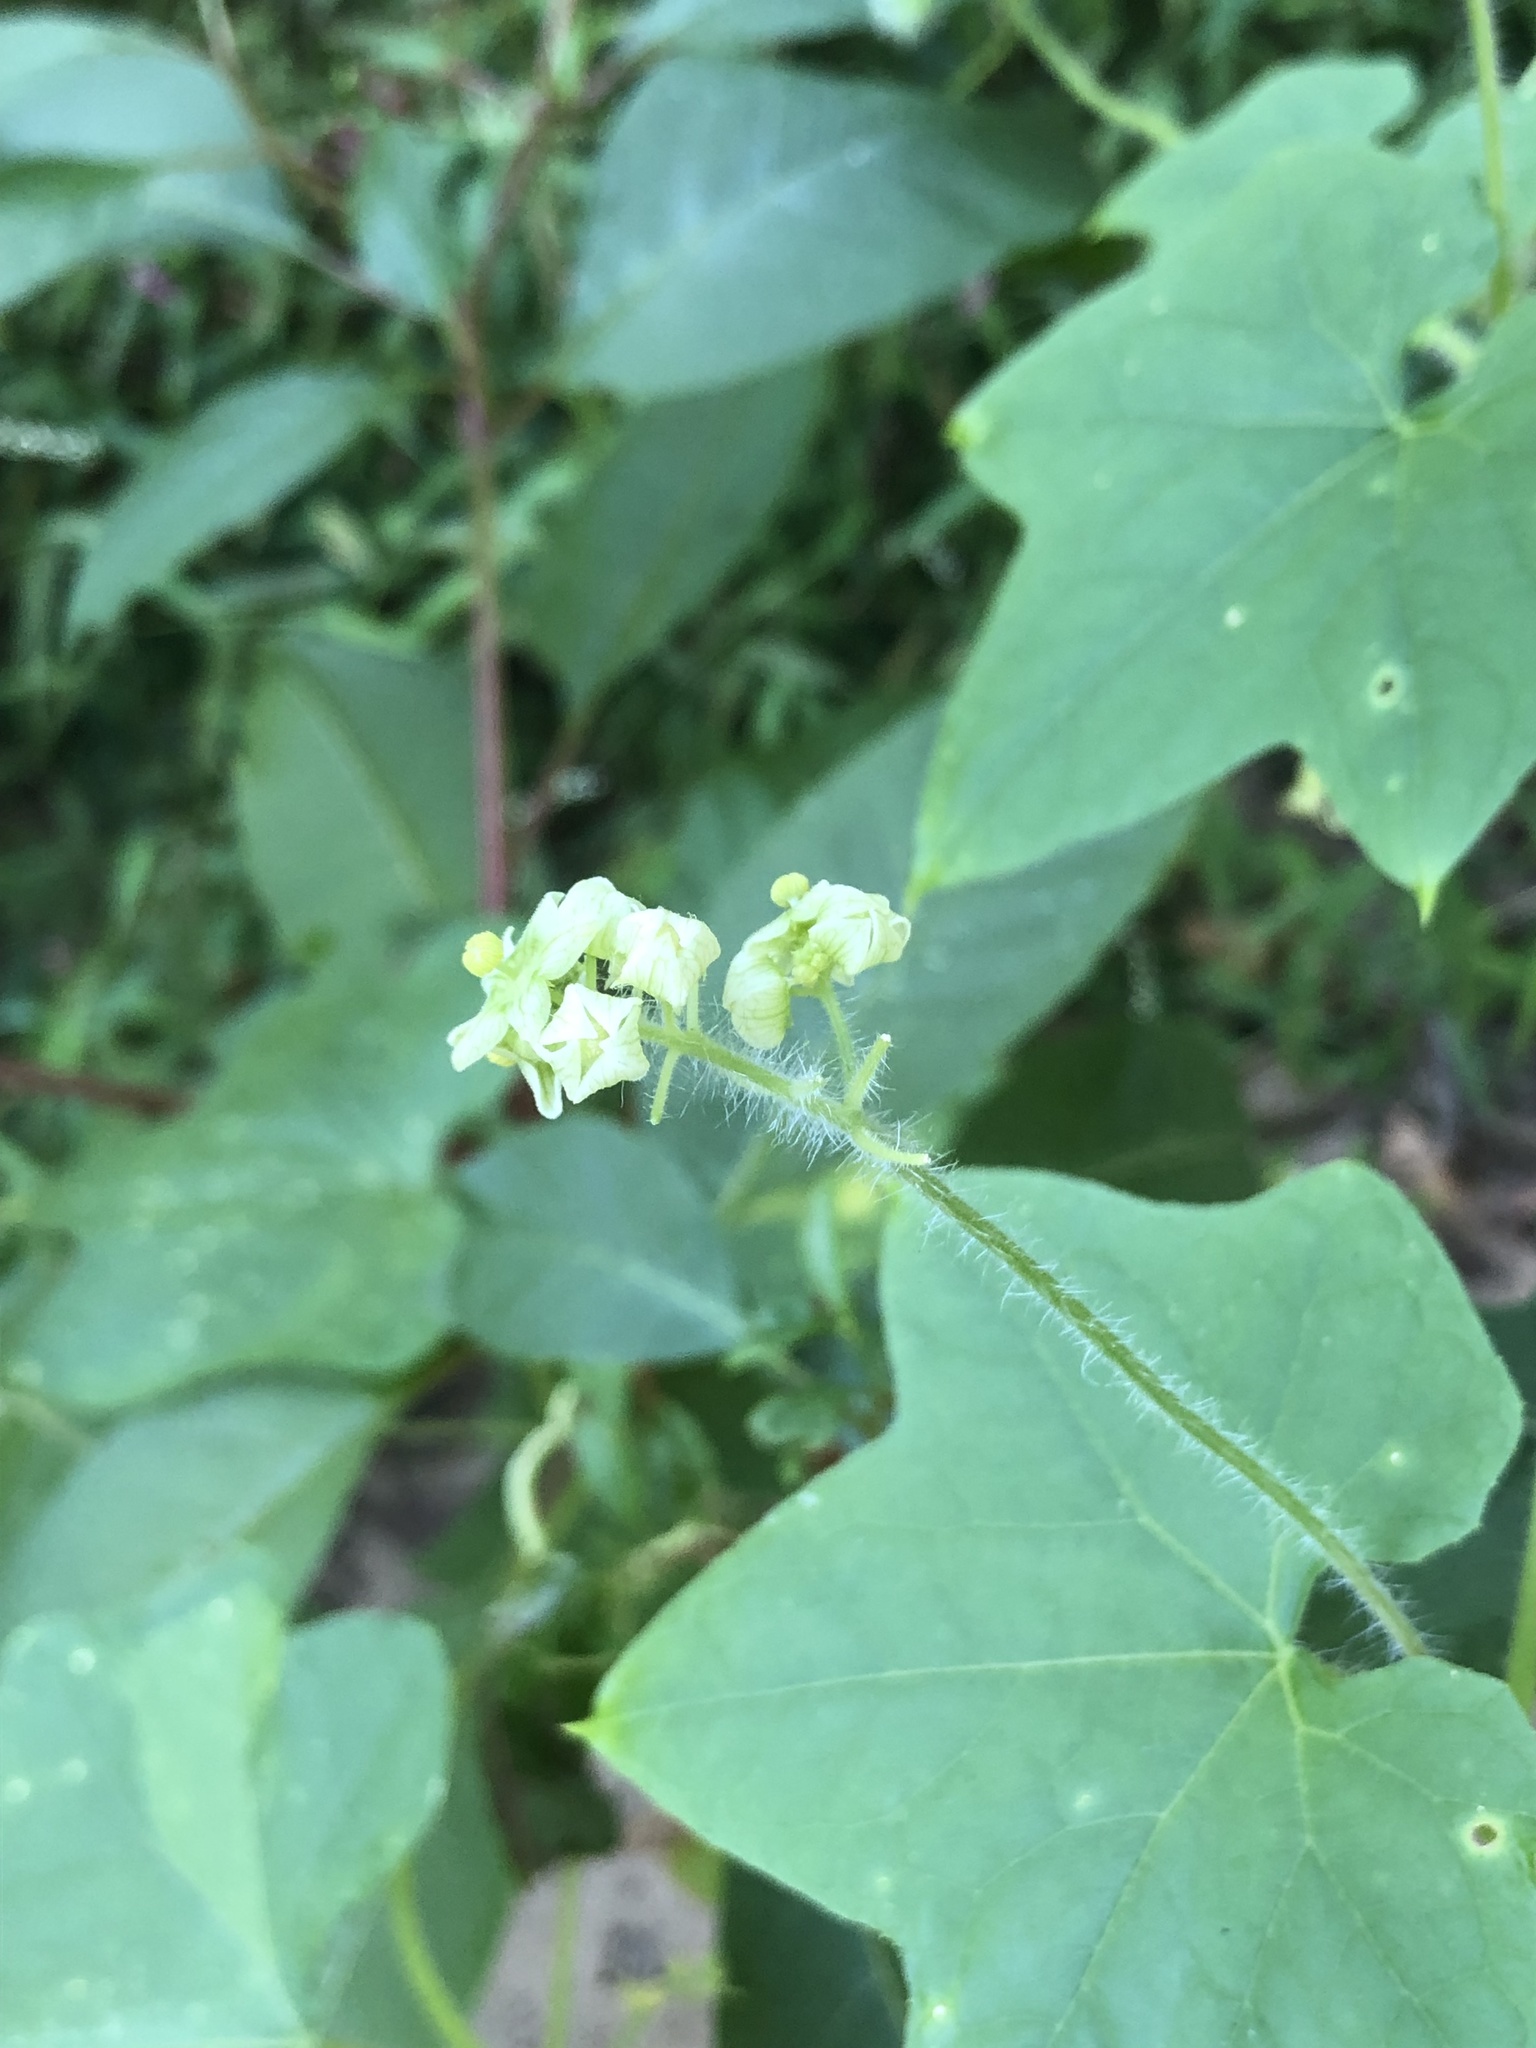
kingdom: Plantae
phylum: Tracheophyta
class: Magnoliopsida
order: Cucurbitales
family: Cucurbitaceae
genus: Sicyos
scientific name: Sicyos angulatus
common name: Angled burr cucumber
